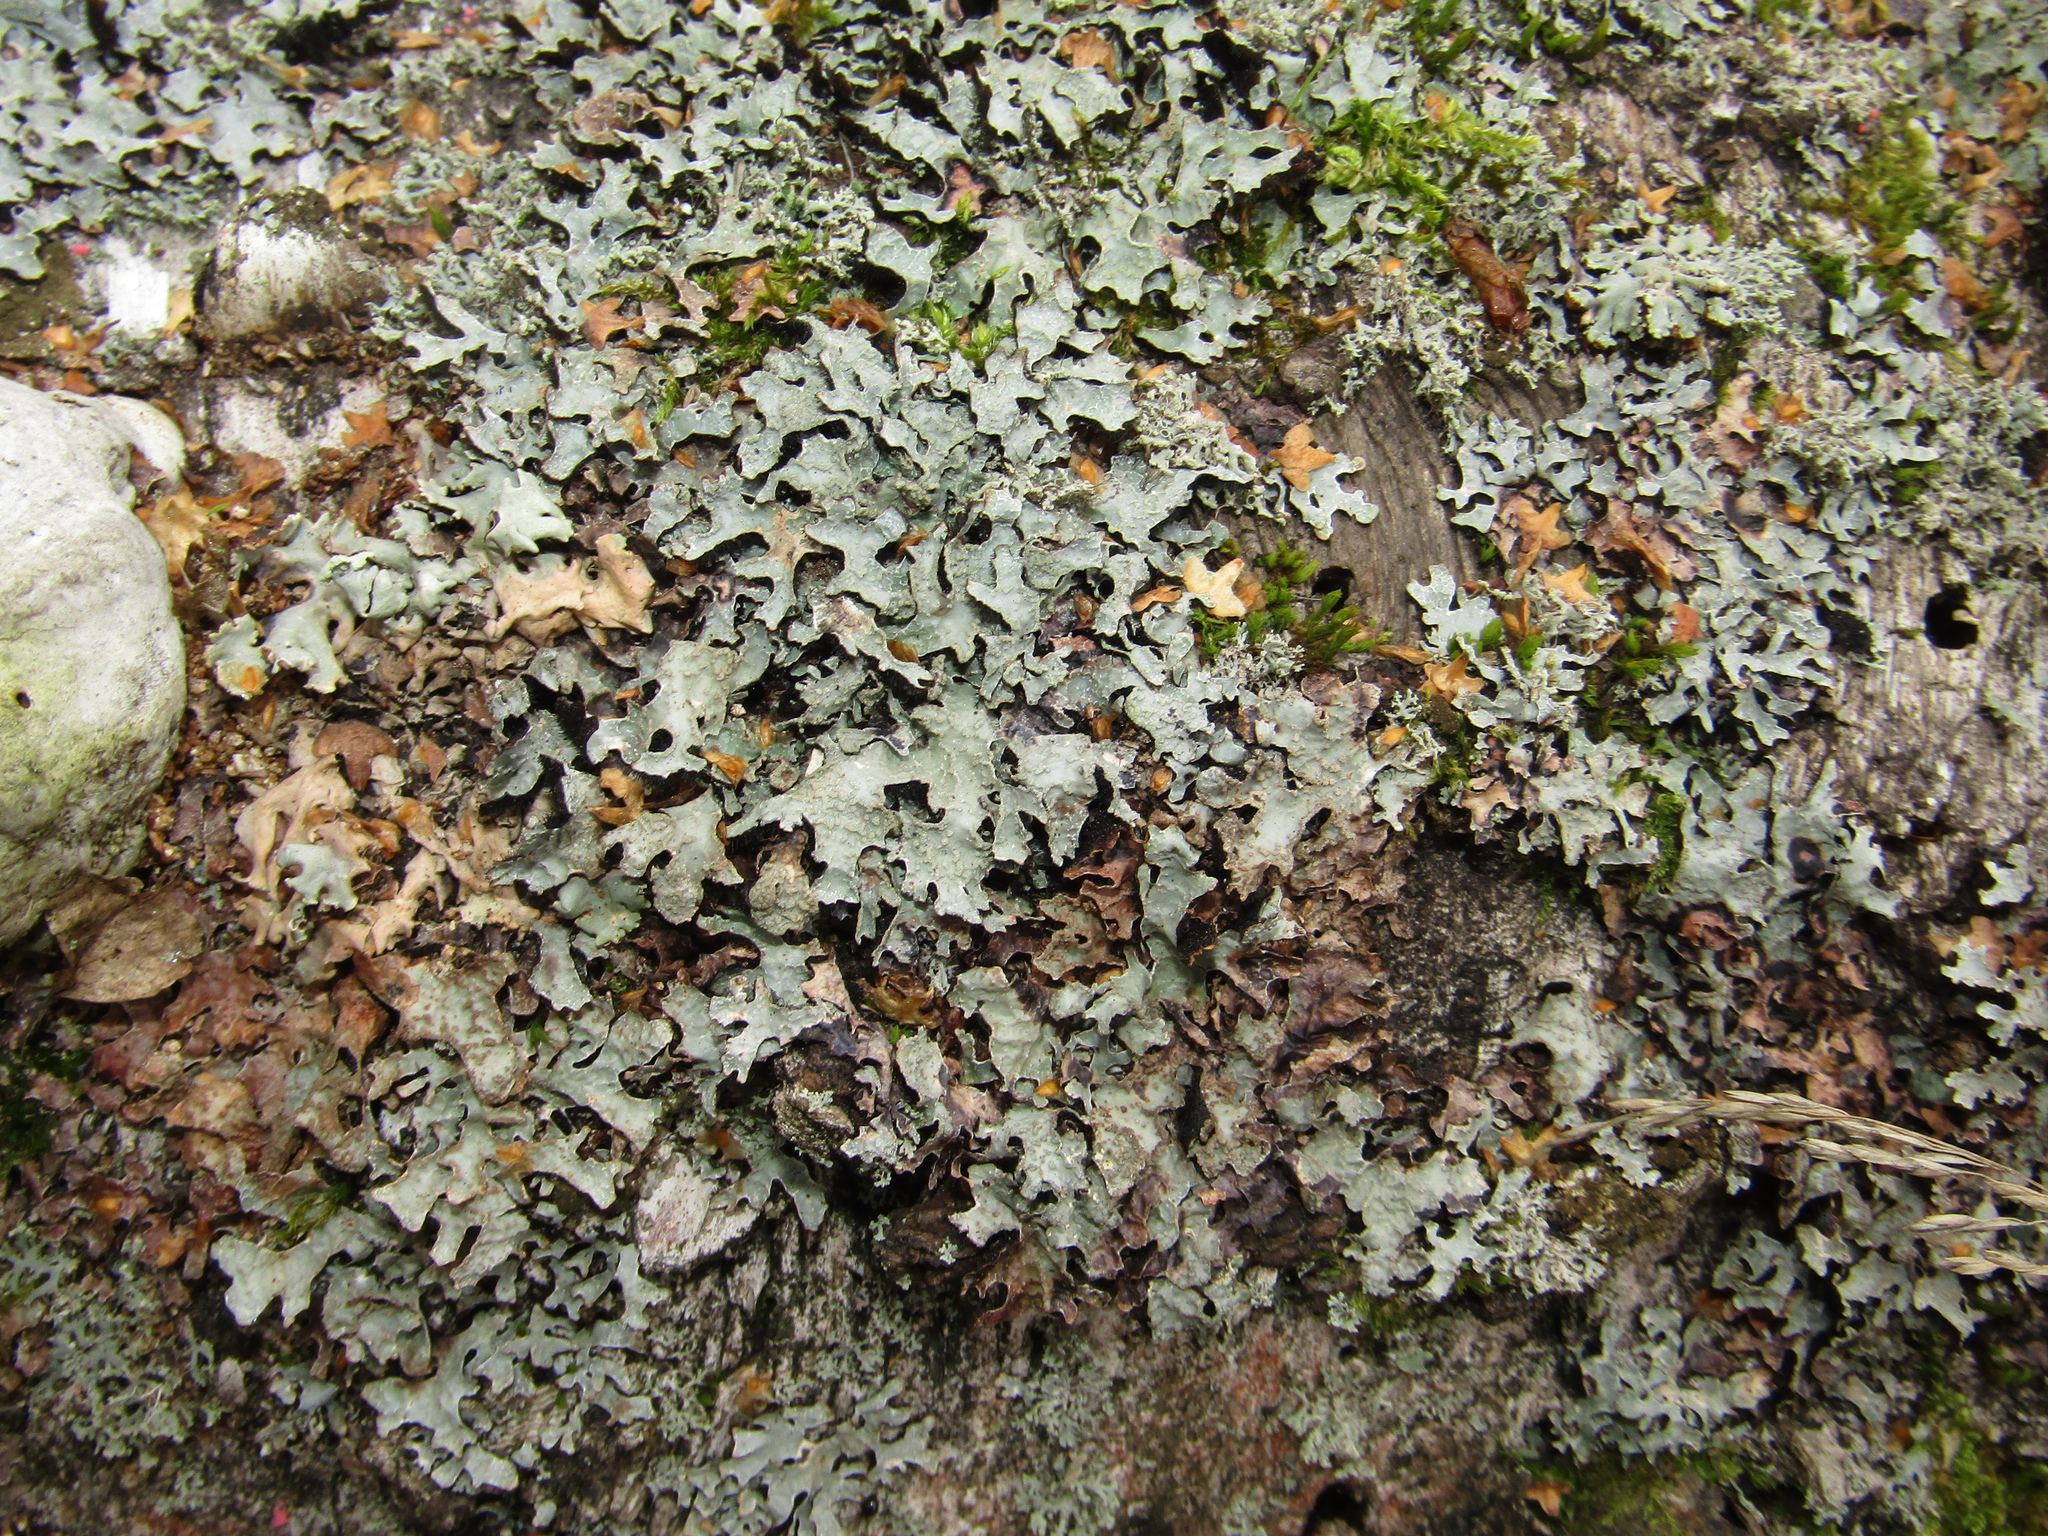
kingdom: Fungi
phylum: Ascomycota
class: Lecanoromycetes
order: Lecanorales
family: Parmeliaceae
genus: Parmelia
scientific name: Parmelia sulcata
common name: Netted shield lichen
